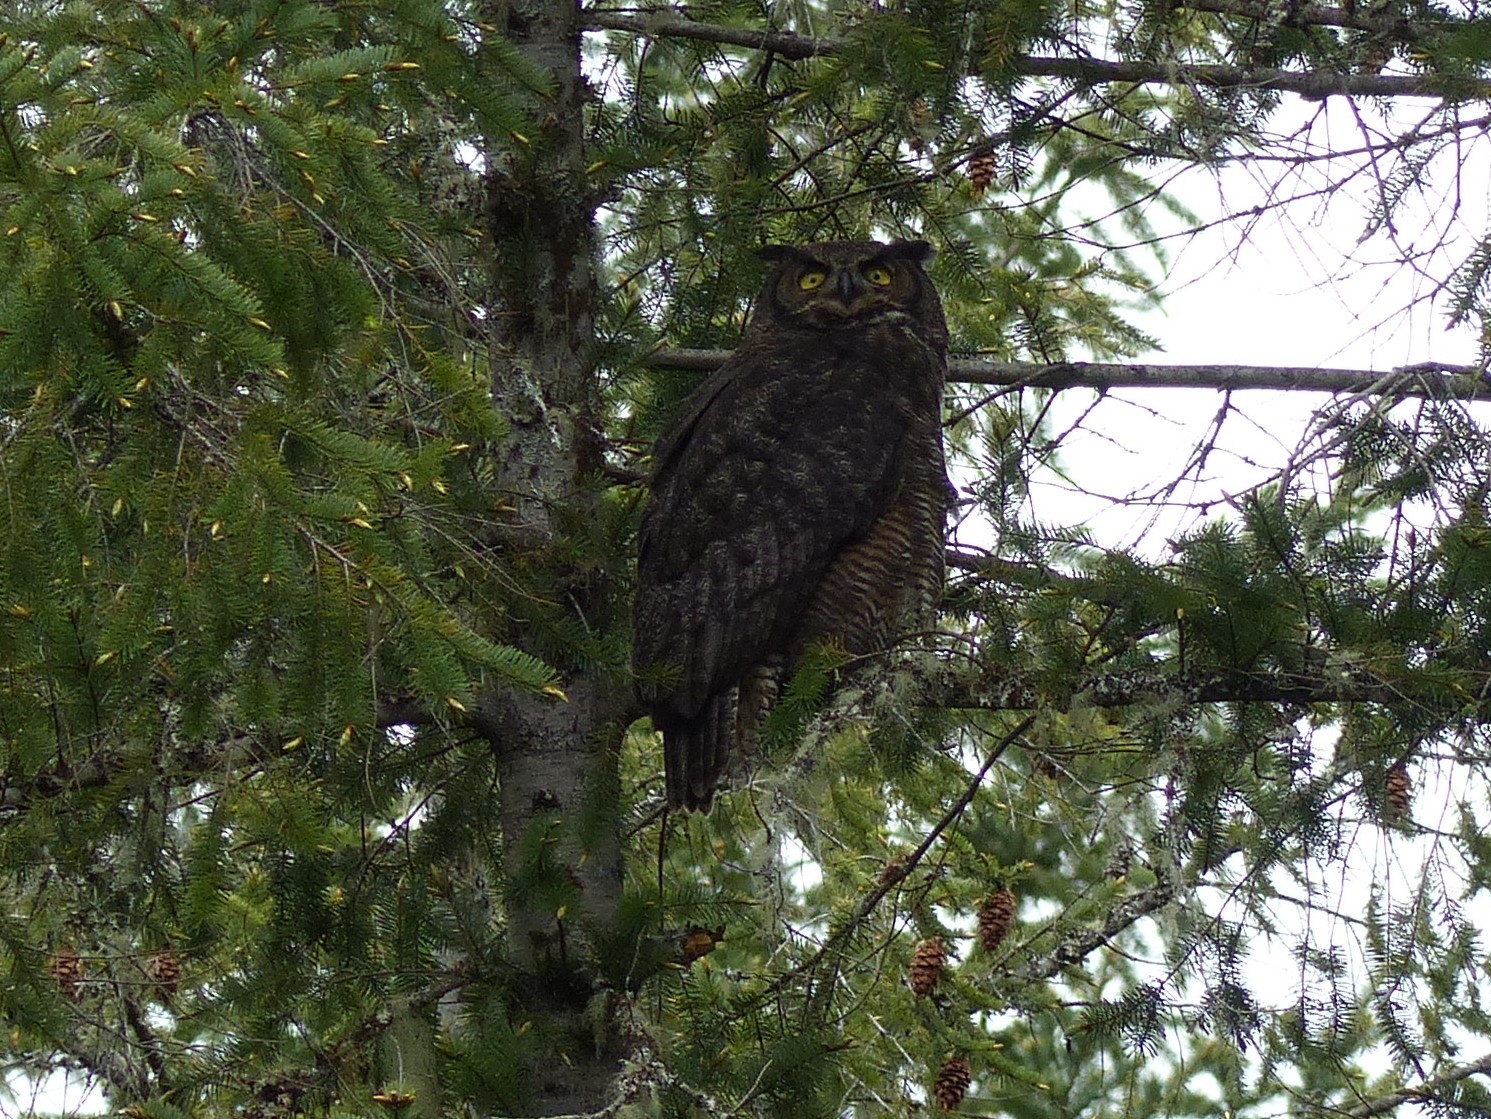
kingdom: Animalia
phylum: Chordata
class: Aves
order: Strigiformes
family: Strigidae
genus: Bubo
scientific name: Bubo virginianus
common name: Great horned owl
